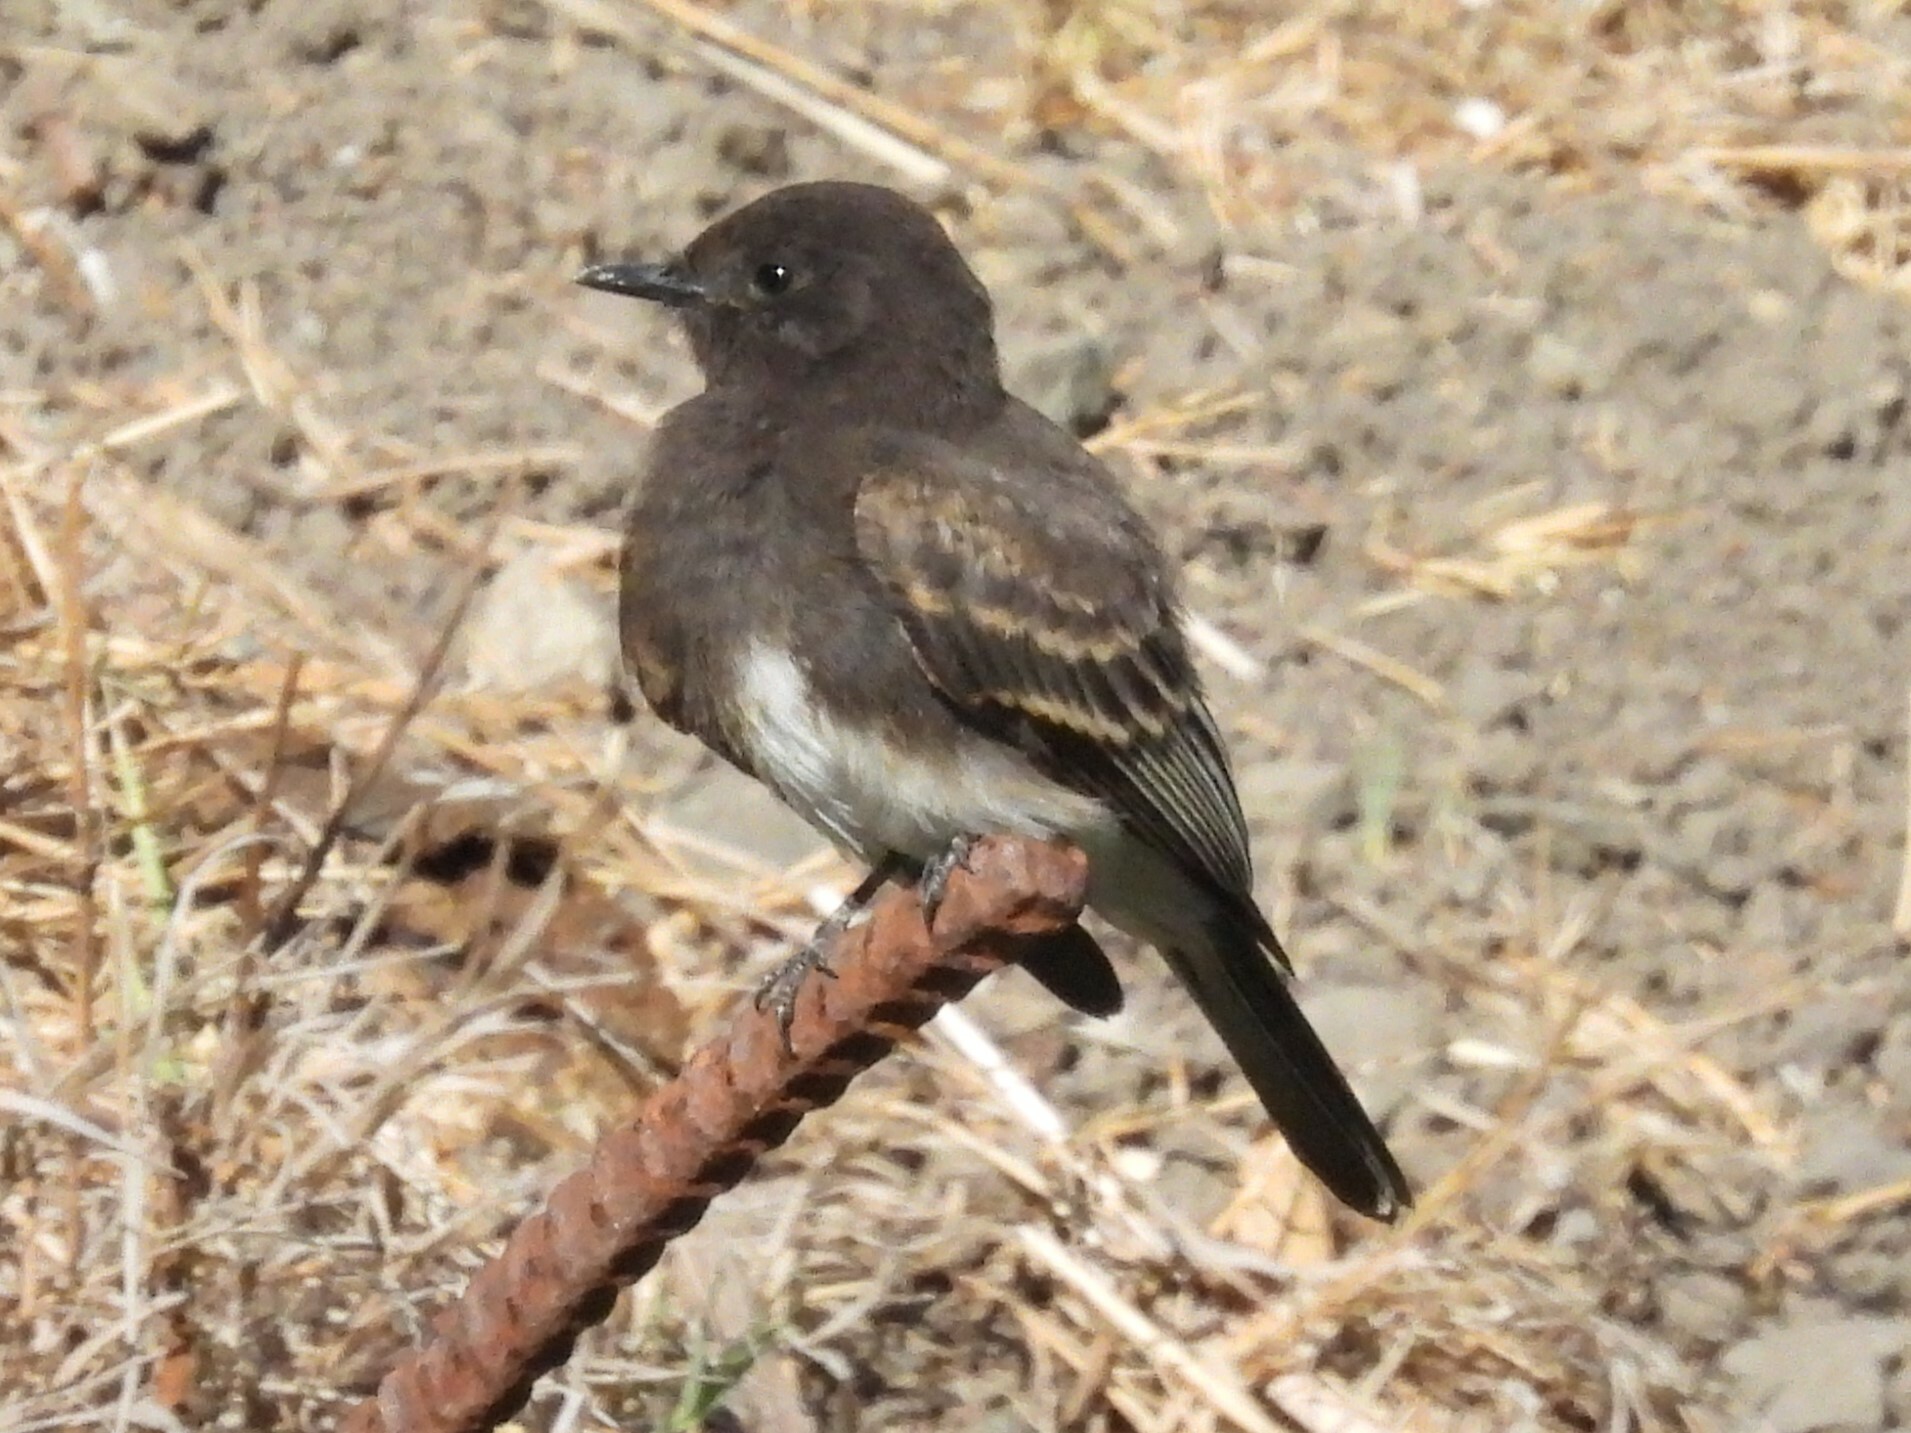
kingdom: Animalia
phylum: Chordata
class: Aves
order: Passeriformes
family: Tyrannidae
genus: Sayornis
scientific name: Sayornis nigricans
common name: Black phoebe
